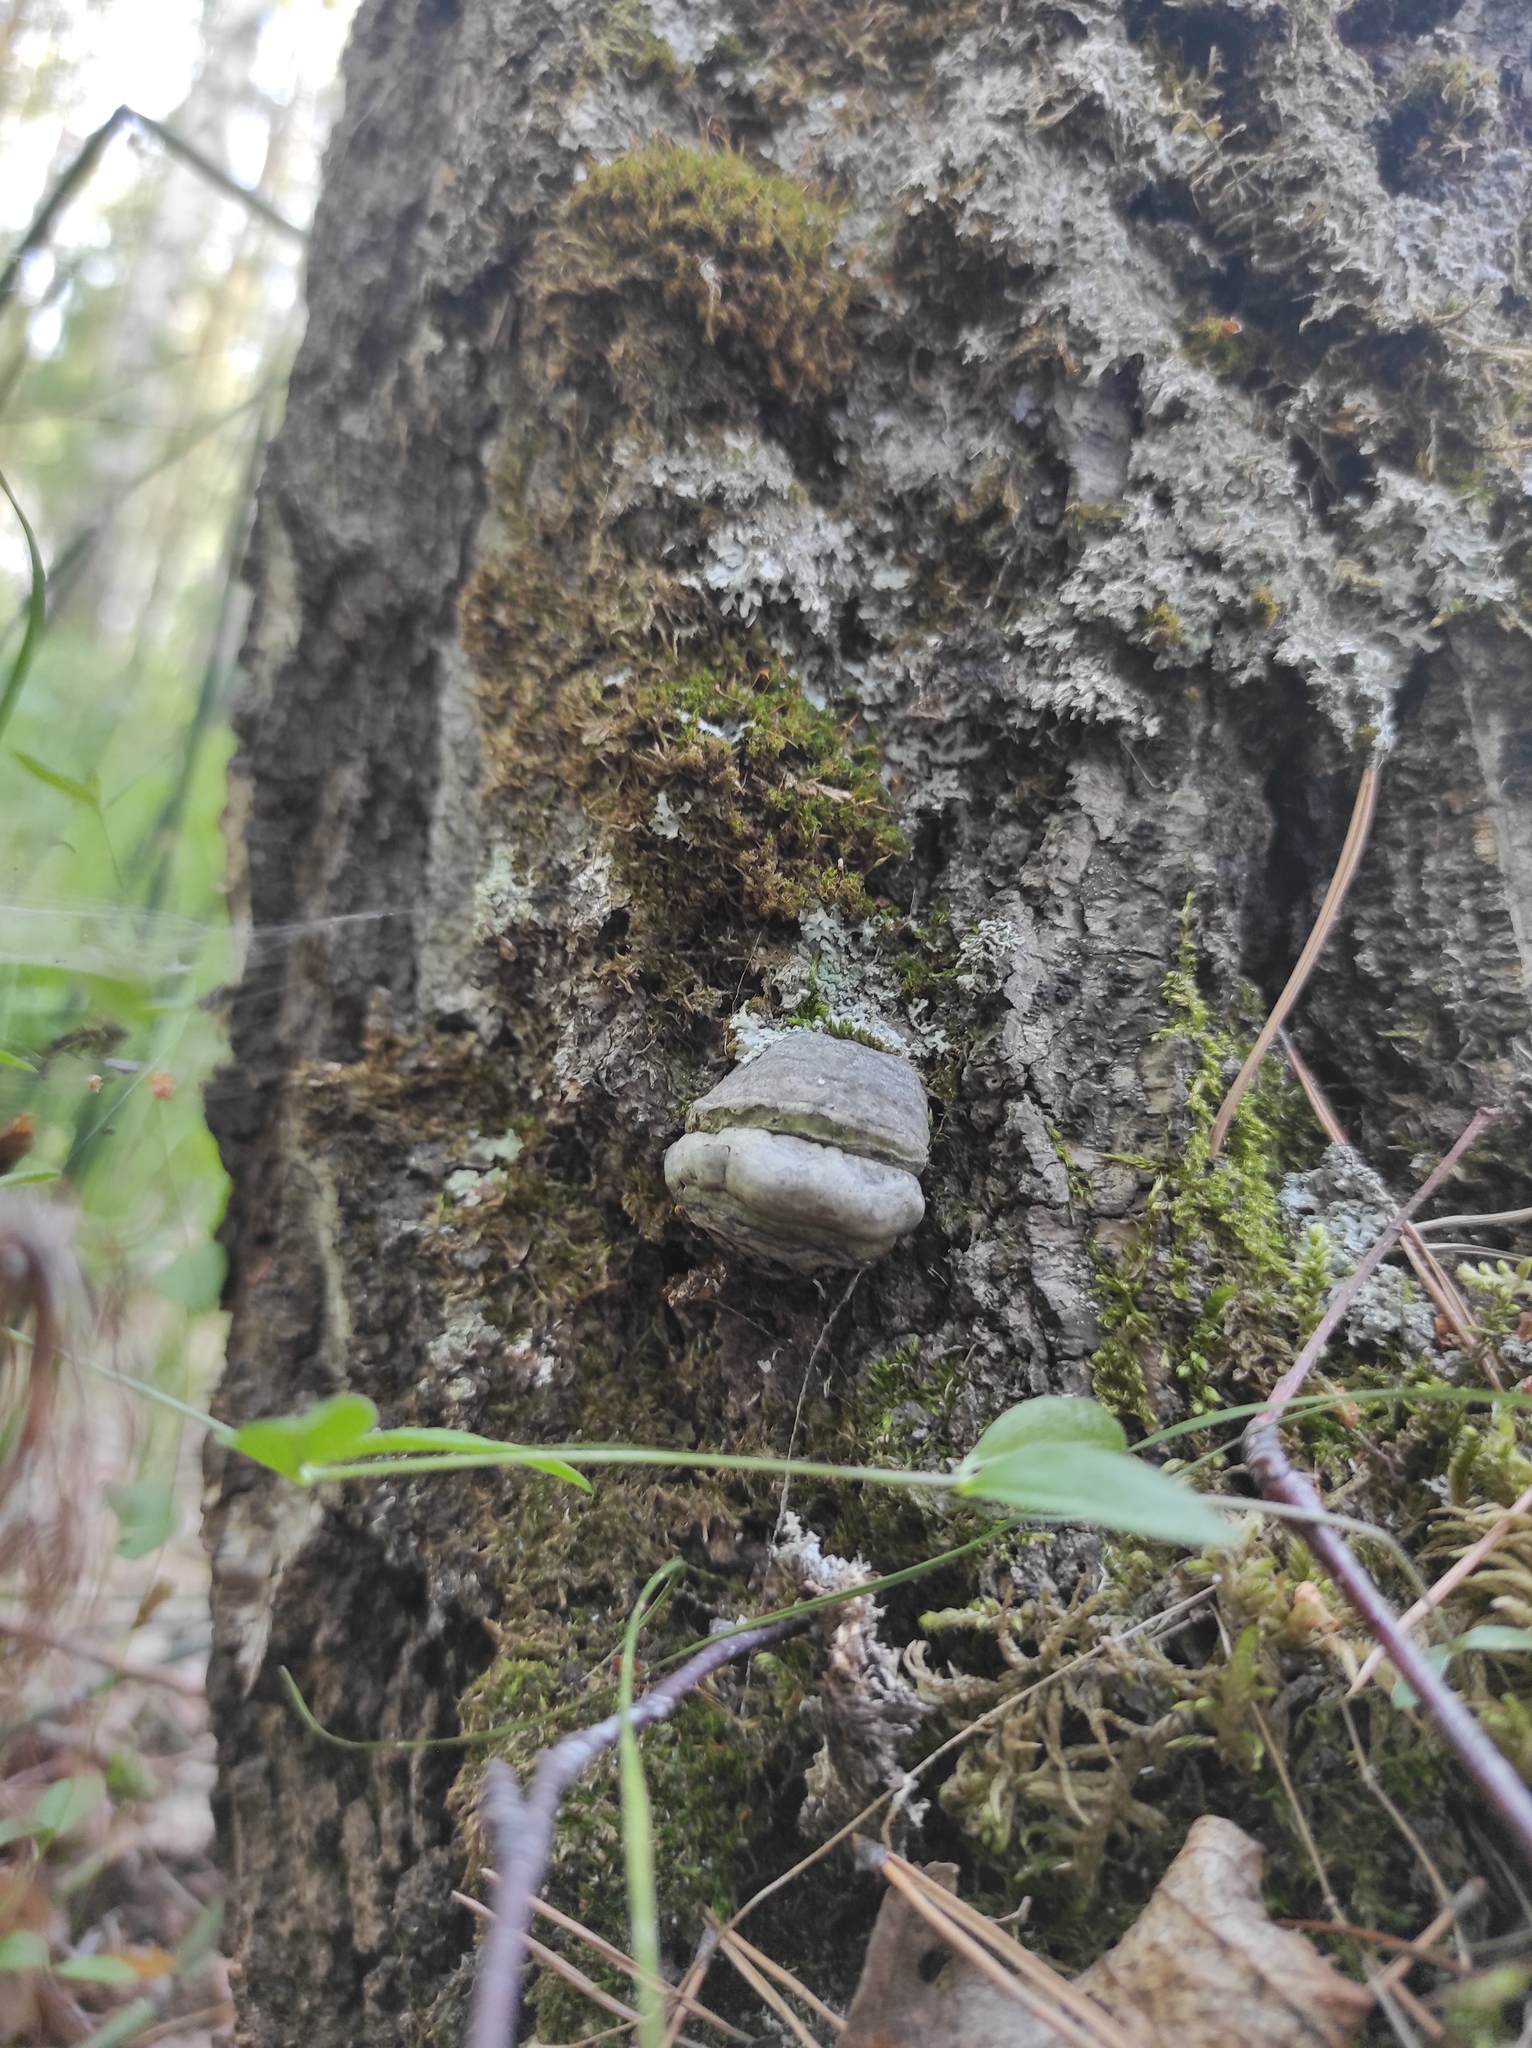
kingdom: Fungi
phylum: Basidiomycota
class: Agaricomycetes
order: Polyporales
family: Polyporaceae
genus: Fomes
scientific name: Fomes fomentarius
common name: Hoof fungus
